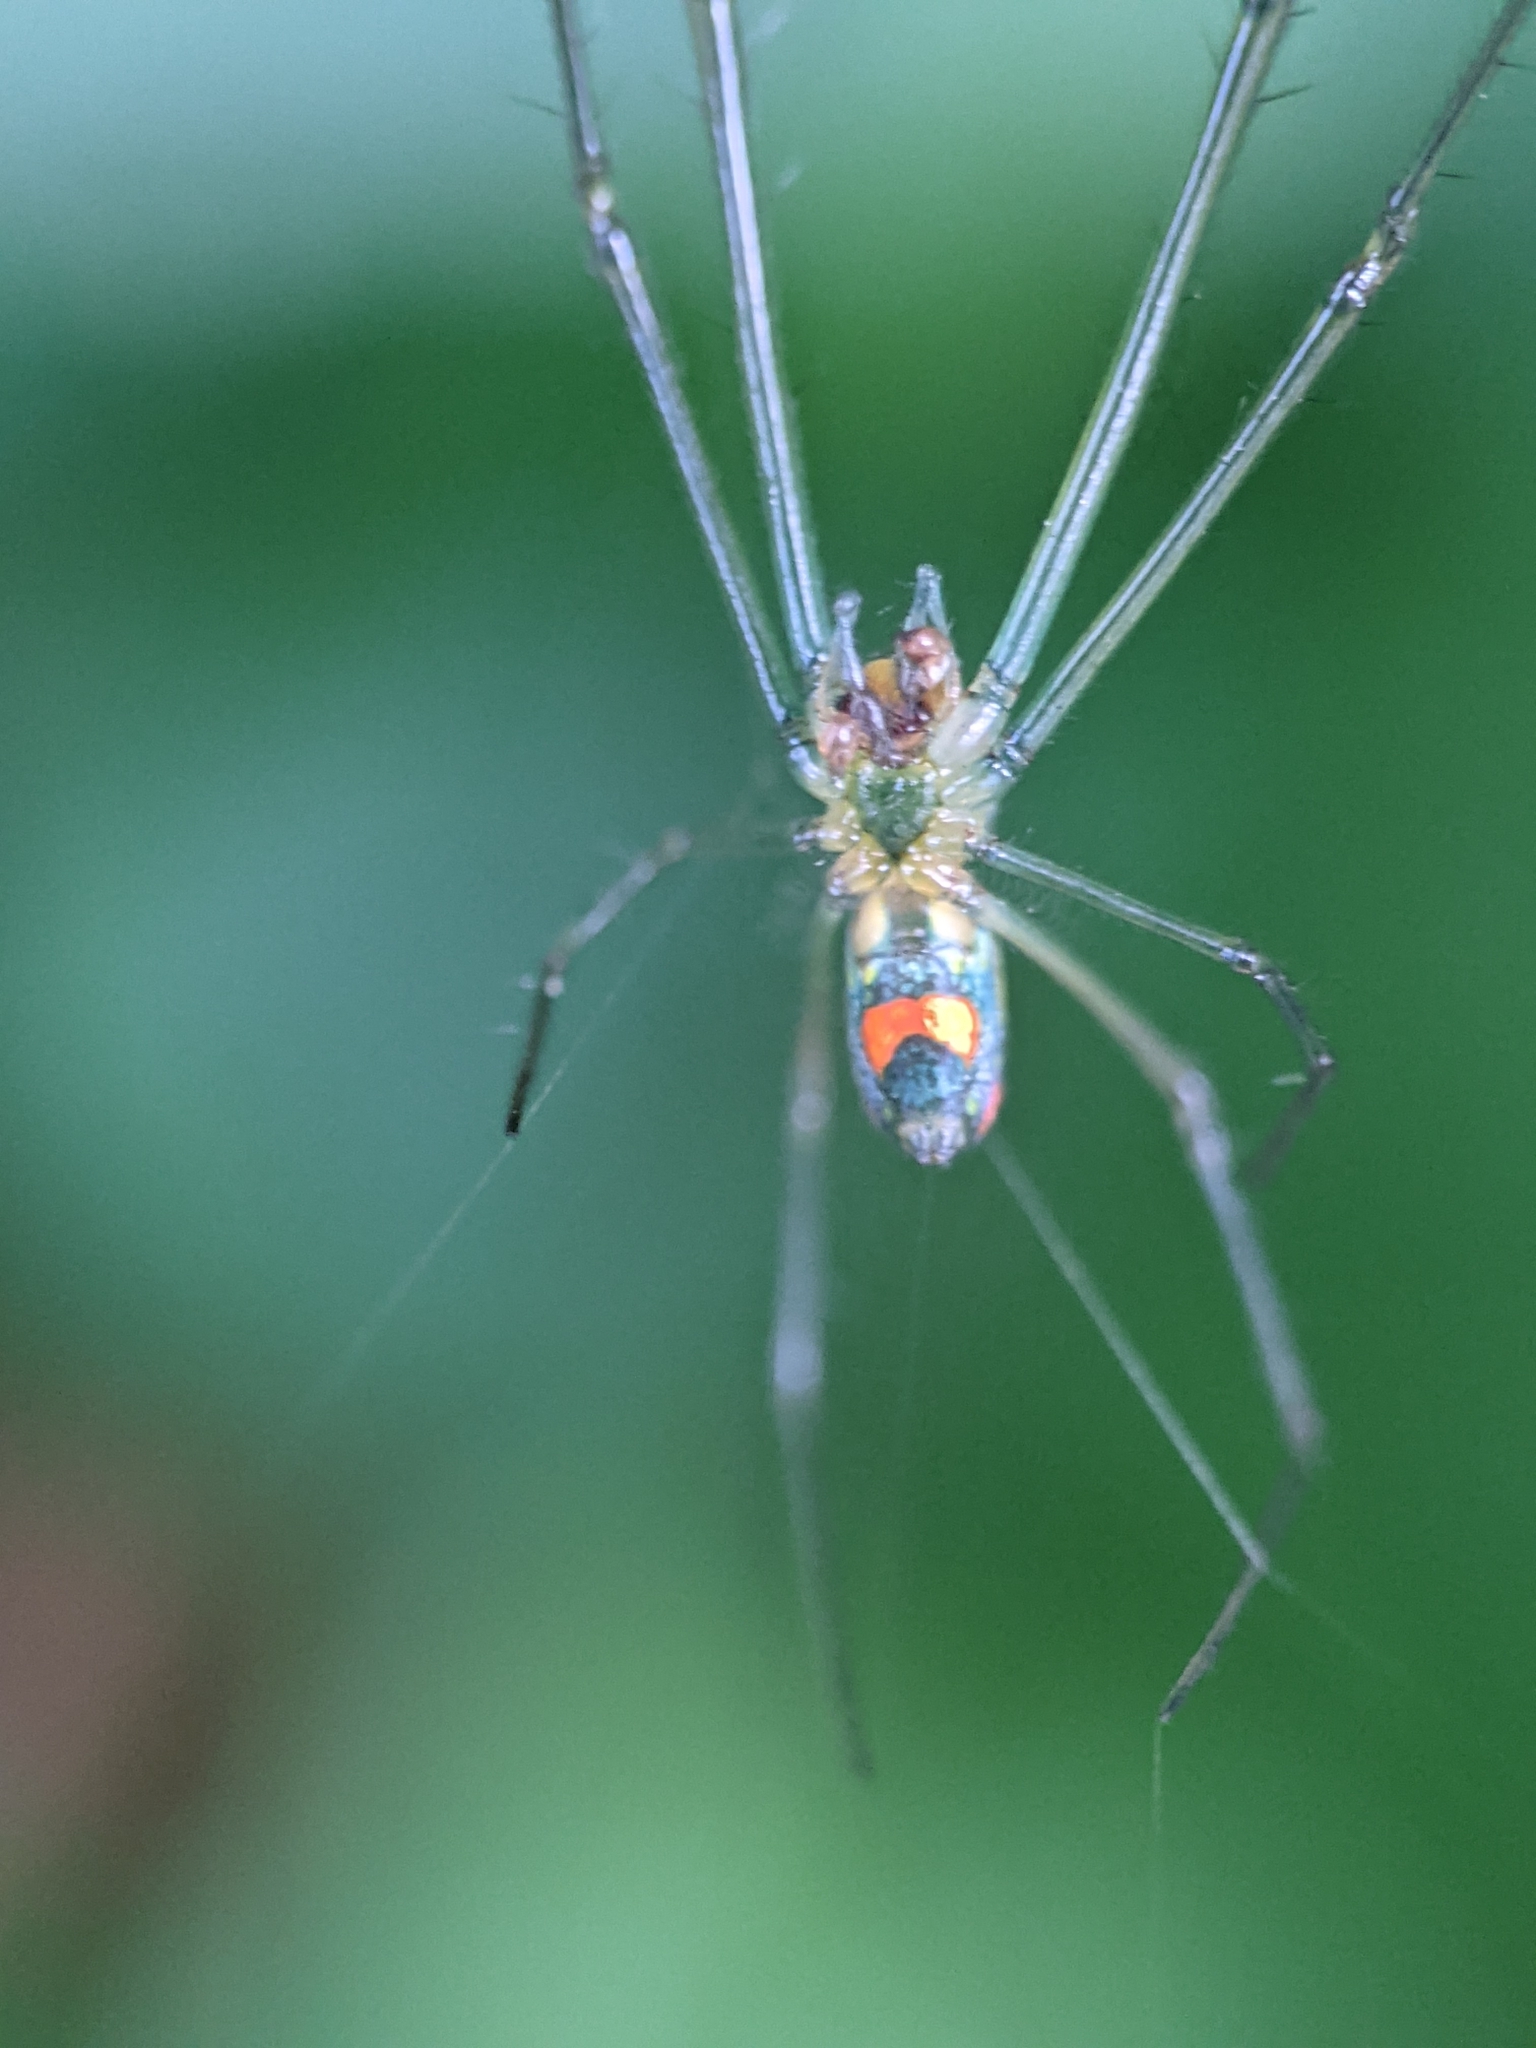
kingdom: Animalia
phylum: Arthropoda
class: Arachnida
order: Araneae
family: Tetragnathidae
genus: Leucauge
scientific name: Leucauge argyrobapta
